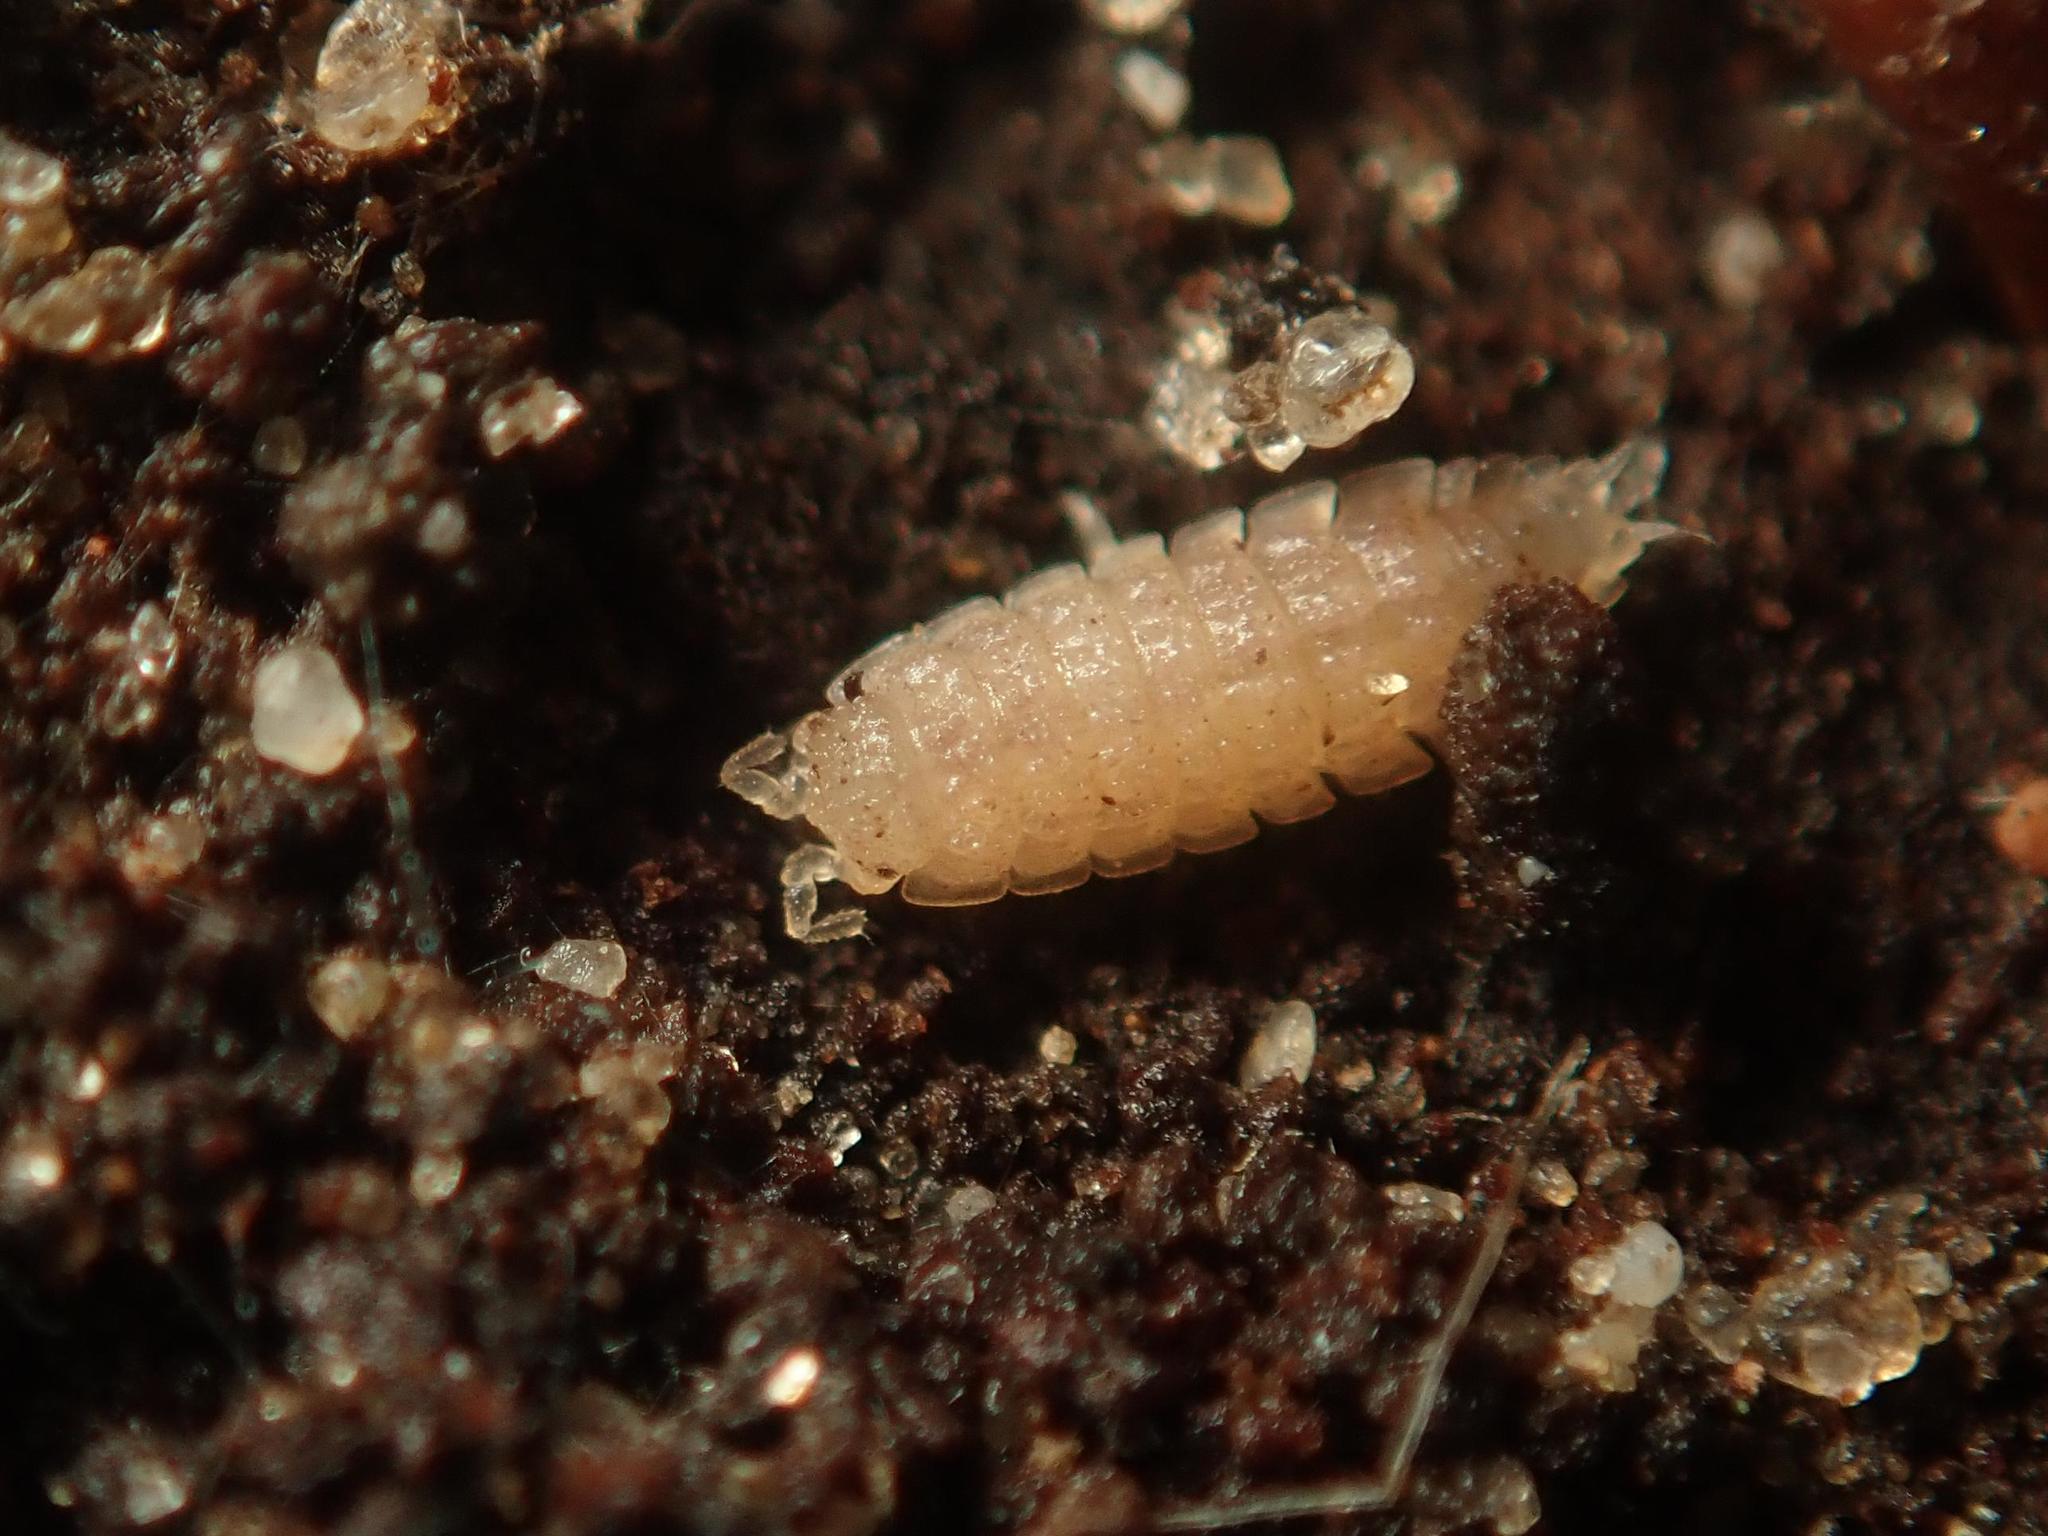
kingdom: Animalia
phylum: Arthropoda
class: Malacostraca
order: Isopoda
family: Trichoniscidae
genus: Haplophthalmus
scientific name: Haplophthalmus danicus
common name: Pillbug
